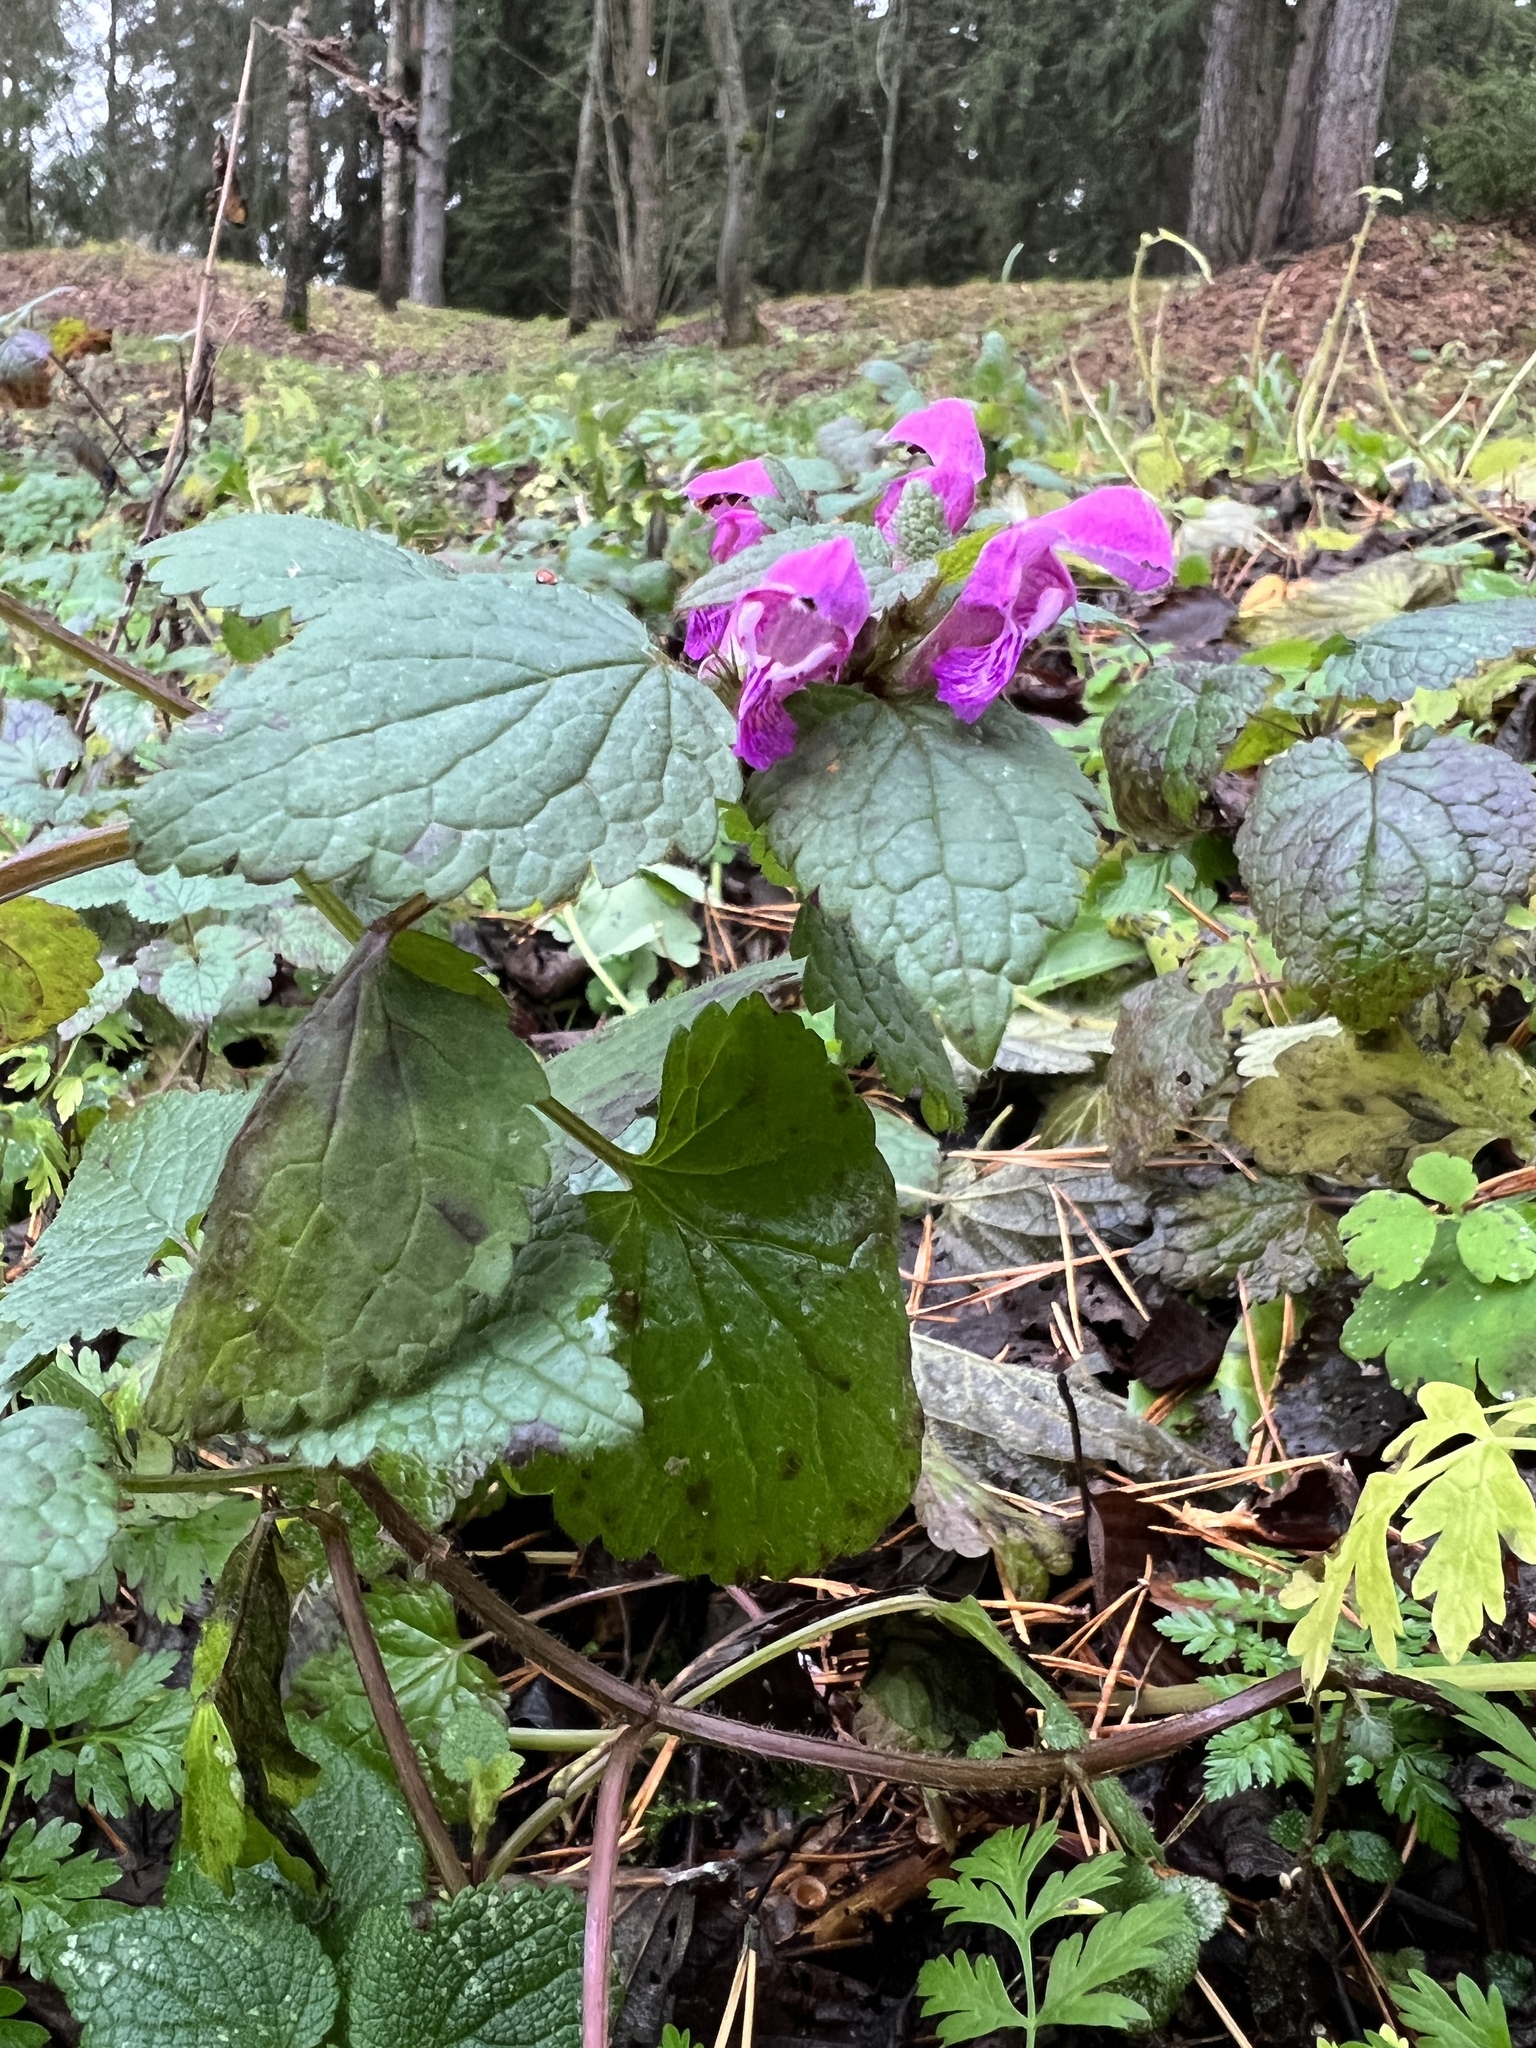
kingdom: Plantae
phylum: Tracheophyta
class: Magnoliopsida
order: Lamiales
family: Lamiaceae
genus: Lamium
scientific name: Lamium maculatum
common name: Spotted dead-nettle
